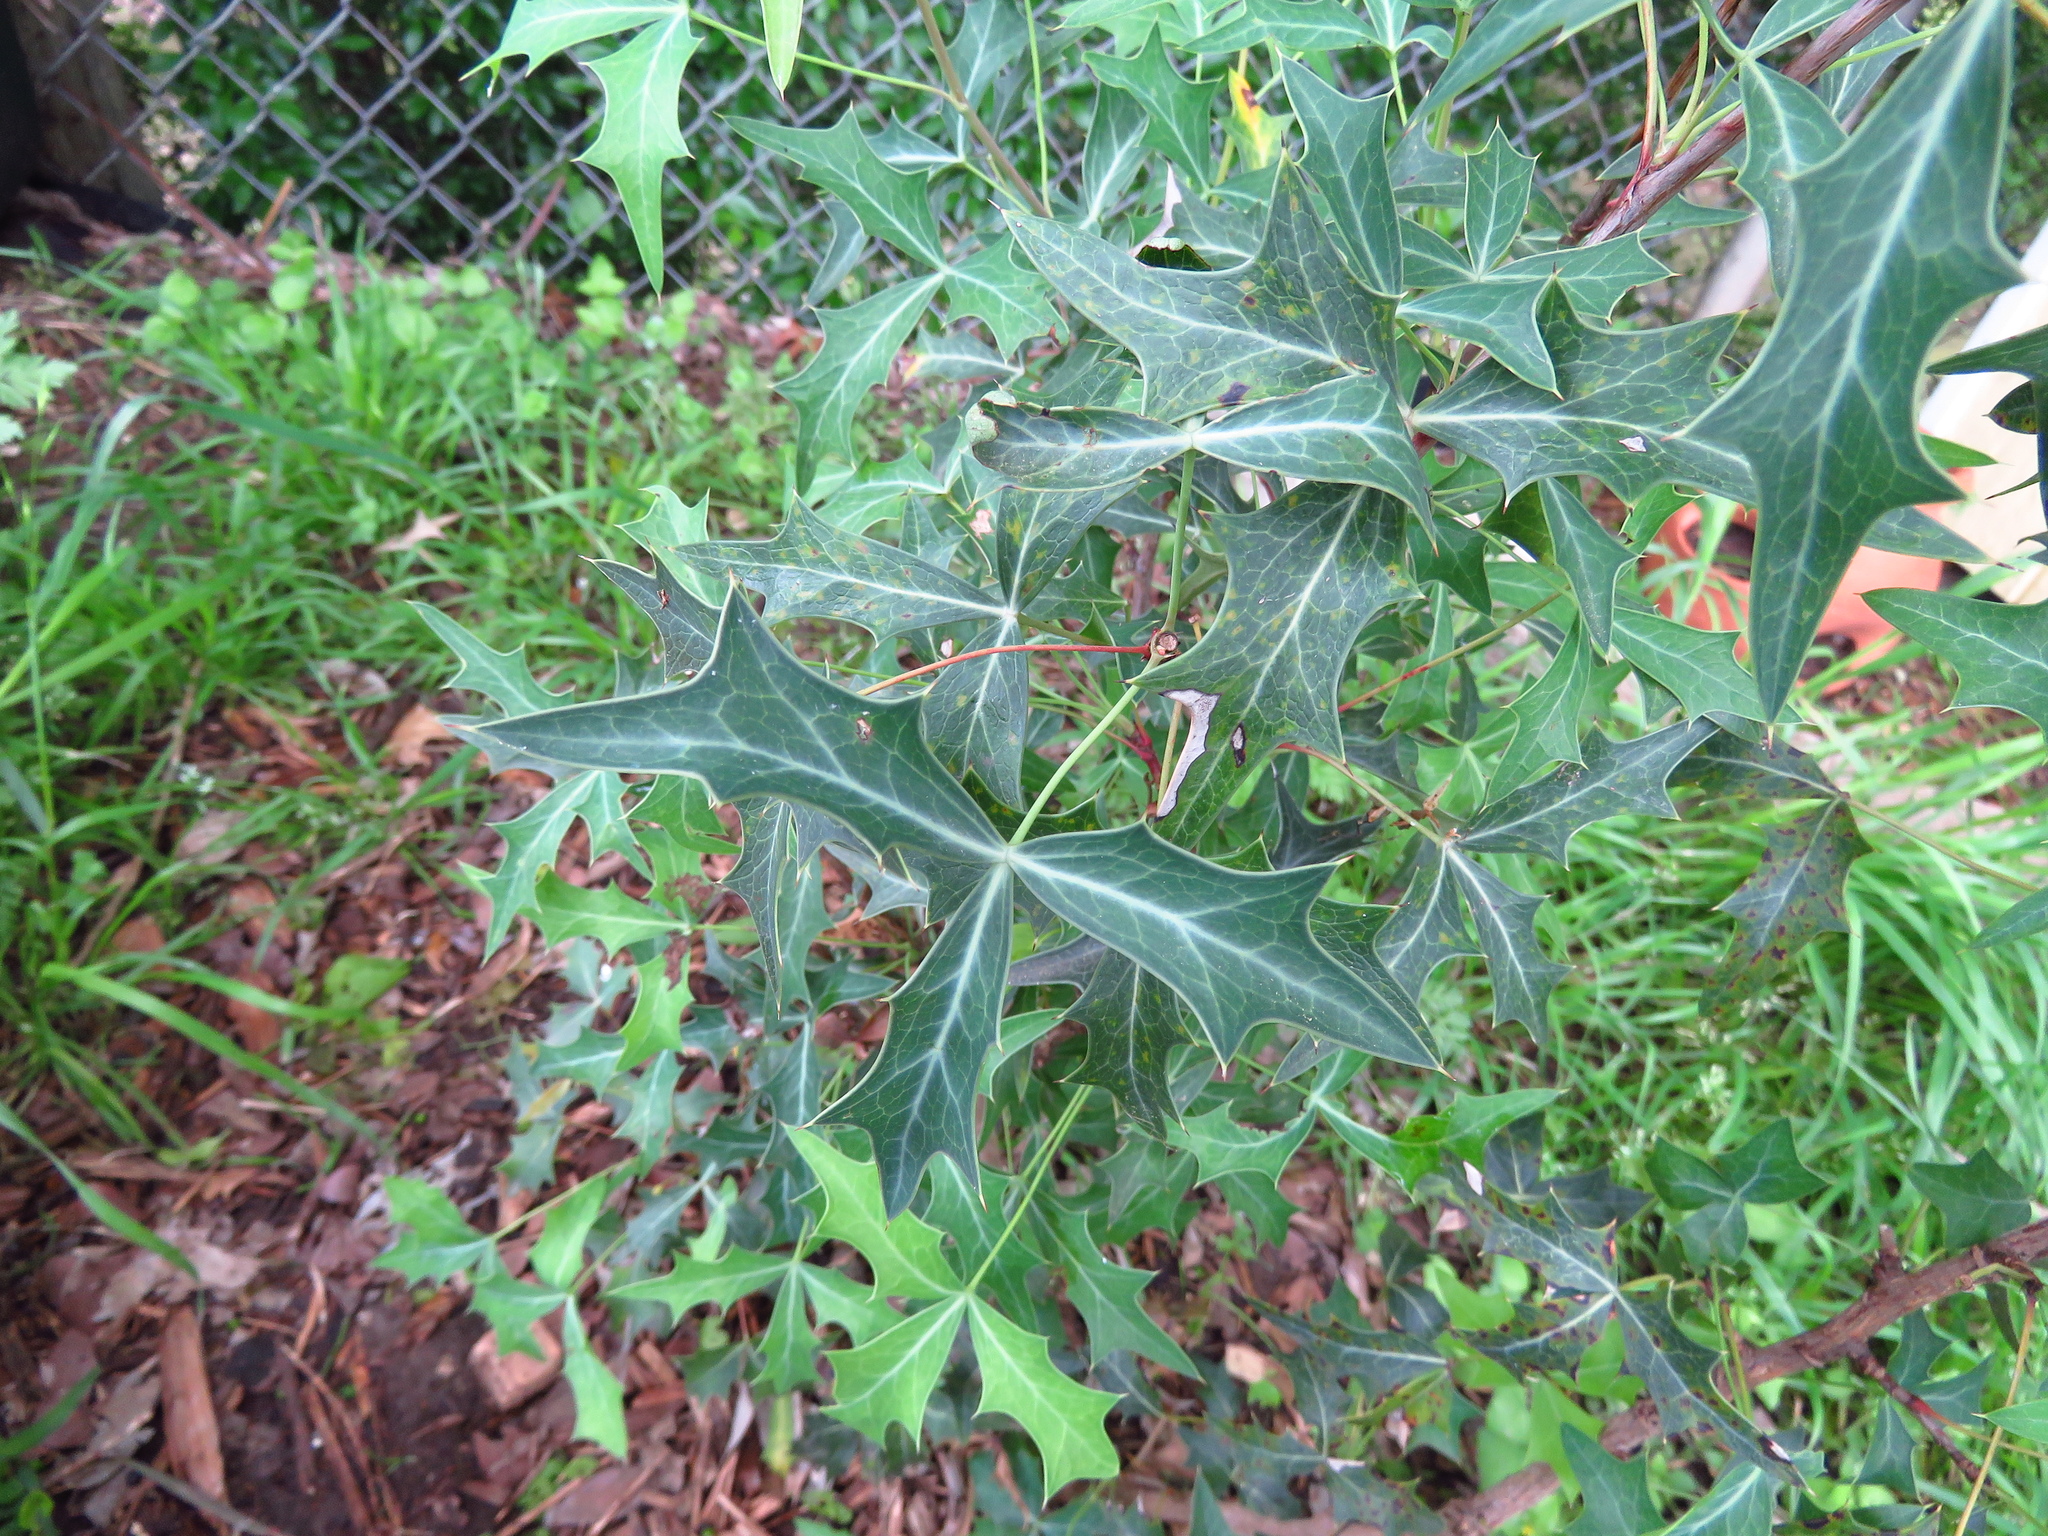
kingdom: Plantae
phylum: Tracheophyta
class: Magnoliopsida
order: Ranunculales
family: Berberidaceae
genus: Alloberberis
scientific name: Alloberberis trifoliolata
